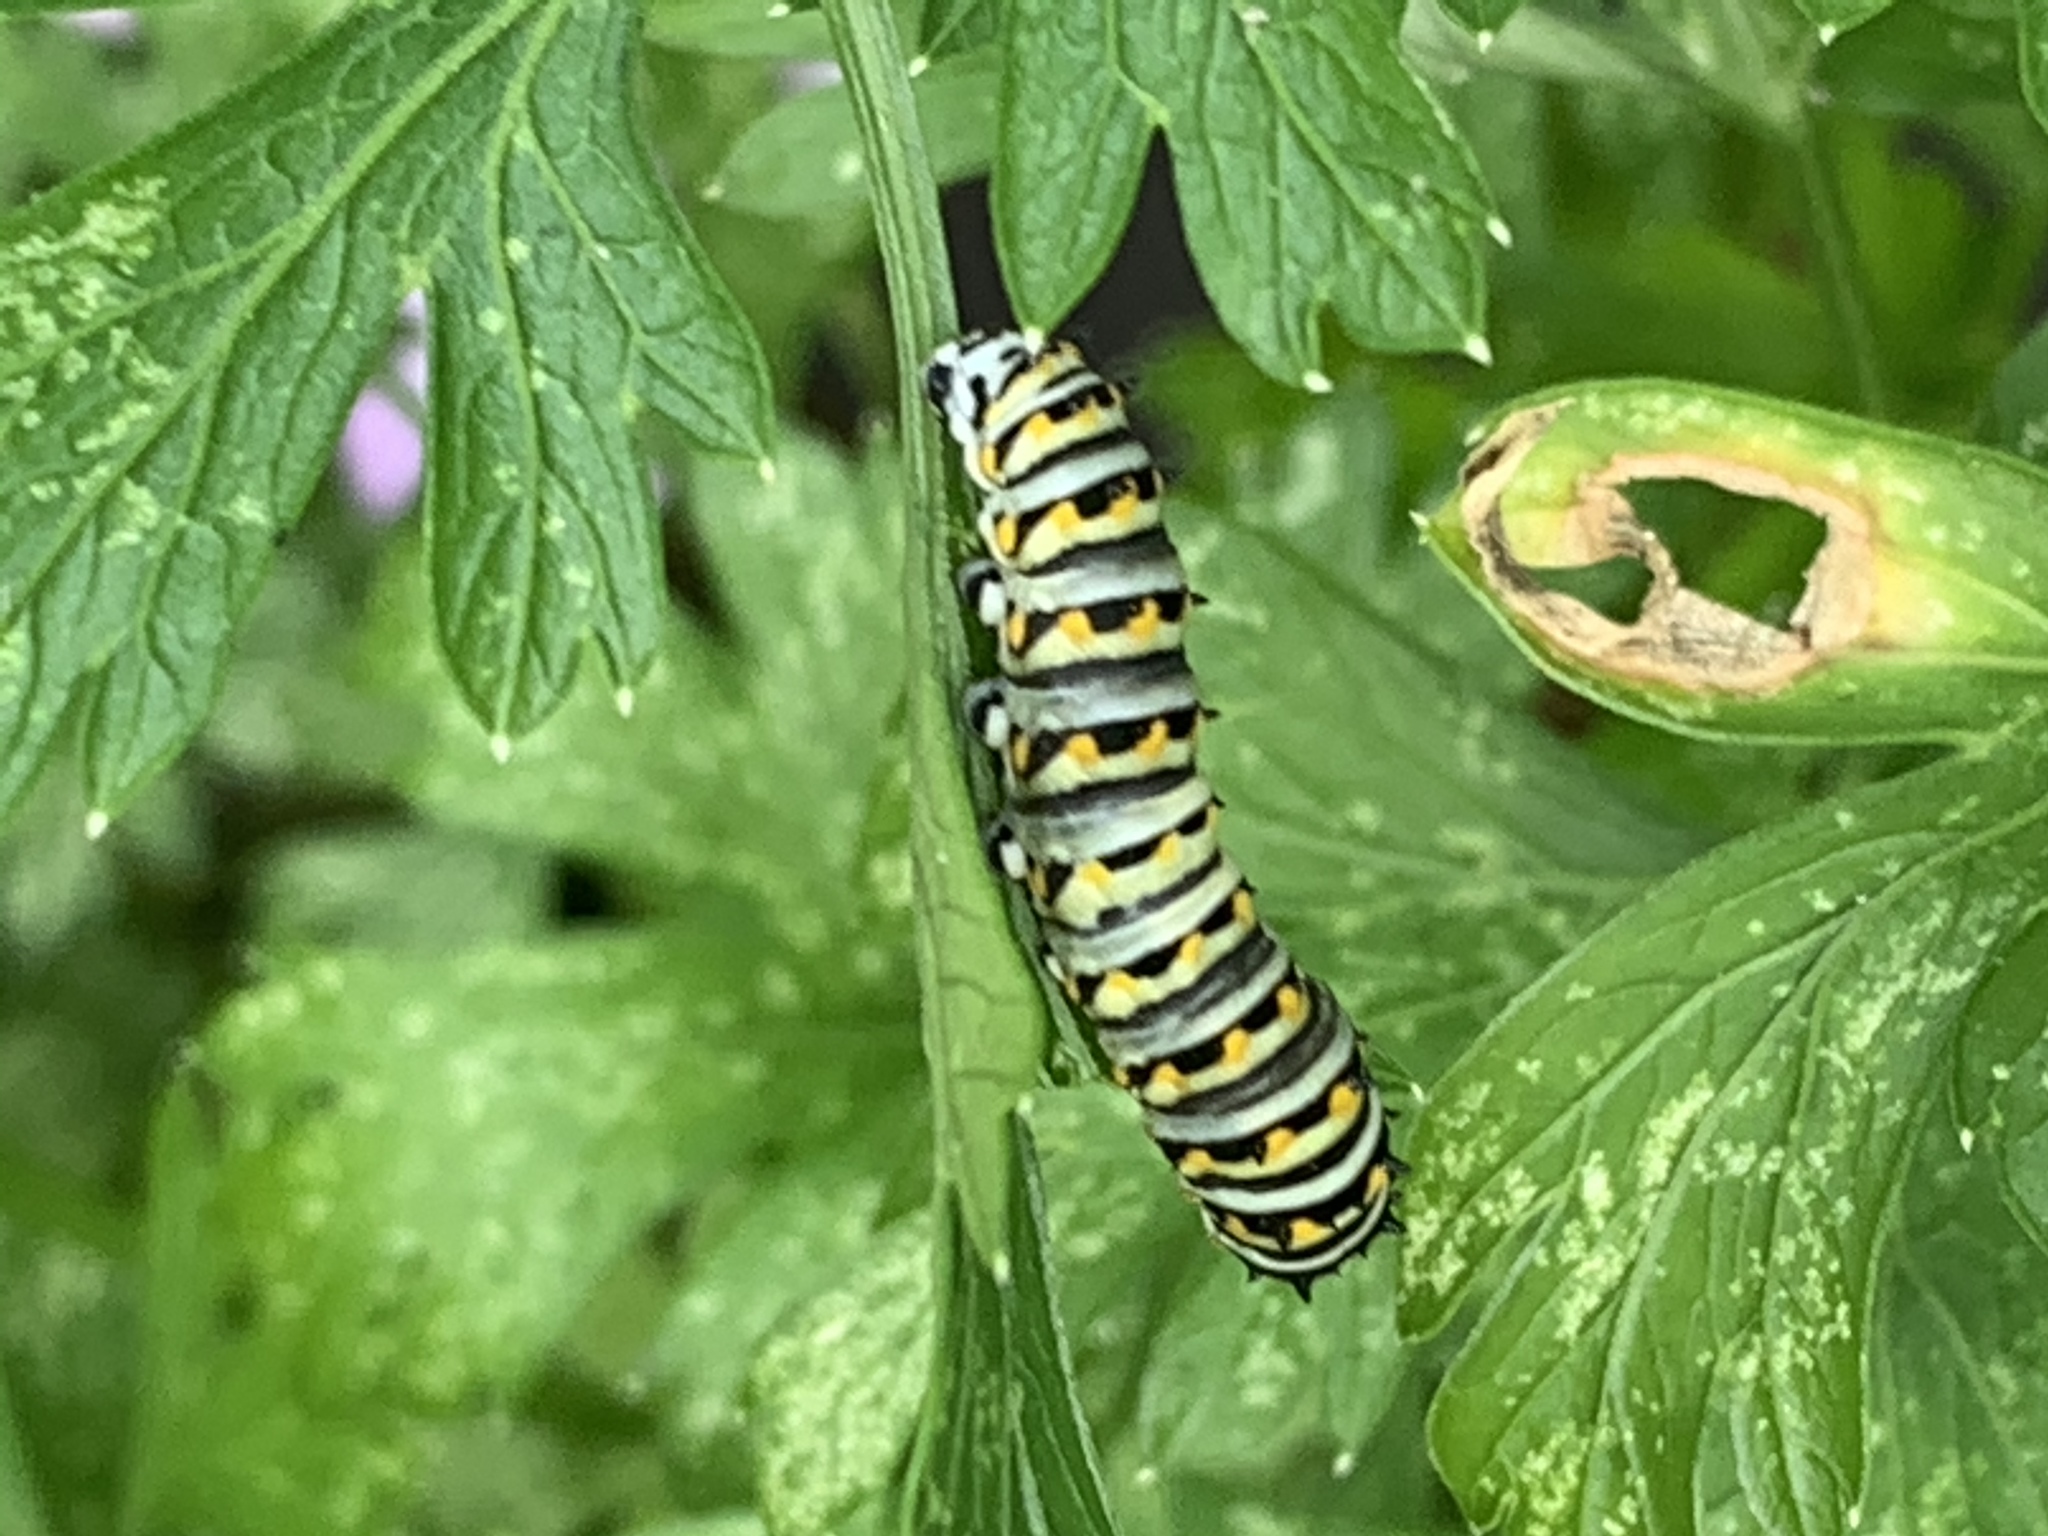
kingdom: Animalia
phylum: Arthropoda
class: Insecta
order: Lepidoptera
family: Papilionidae
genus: Papilio
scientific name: Papilio polyxenes
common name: Black swallowtail
